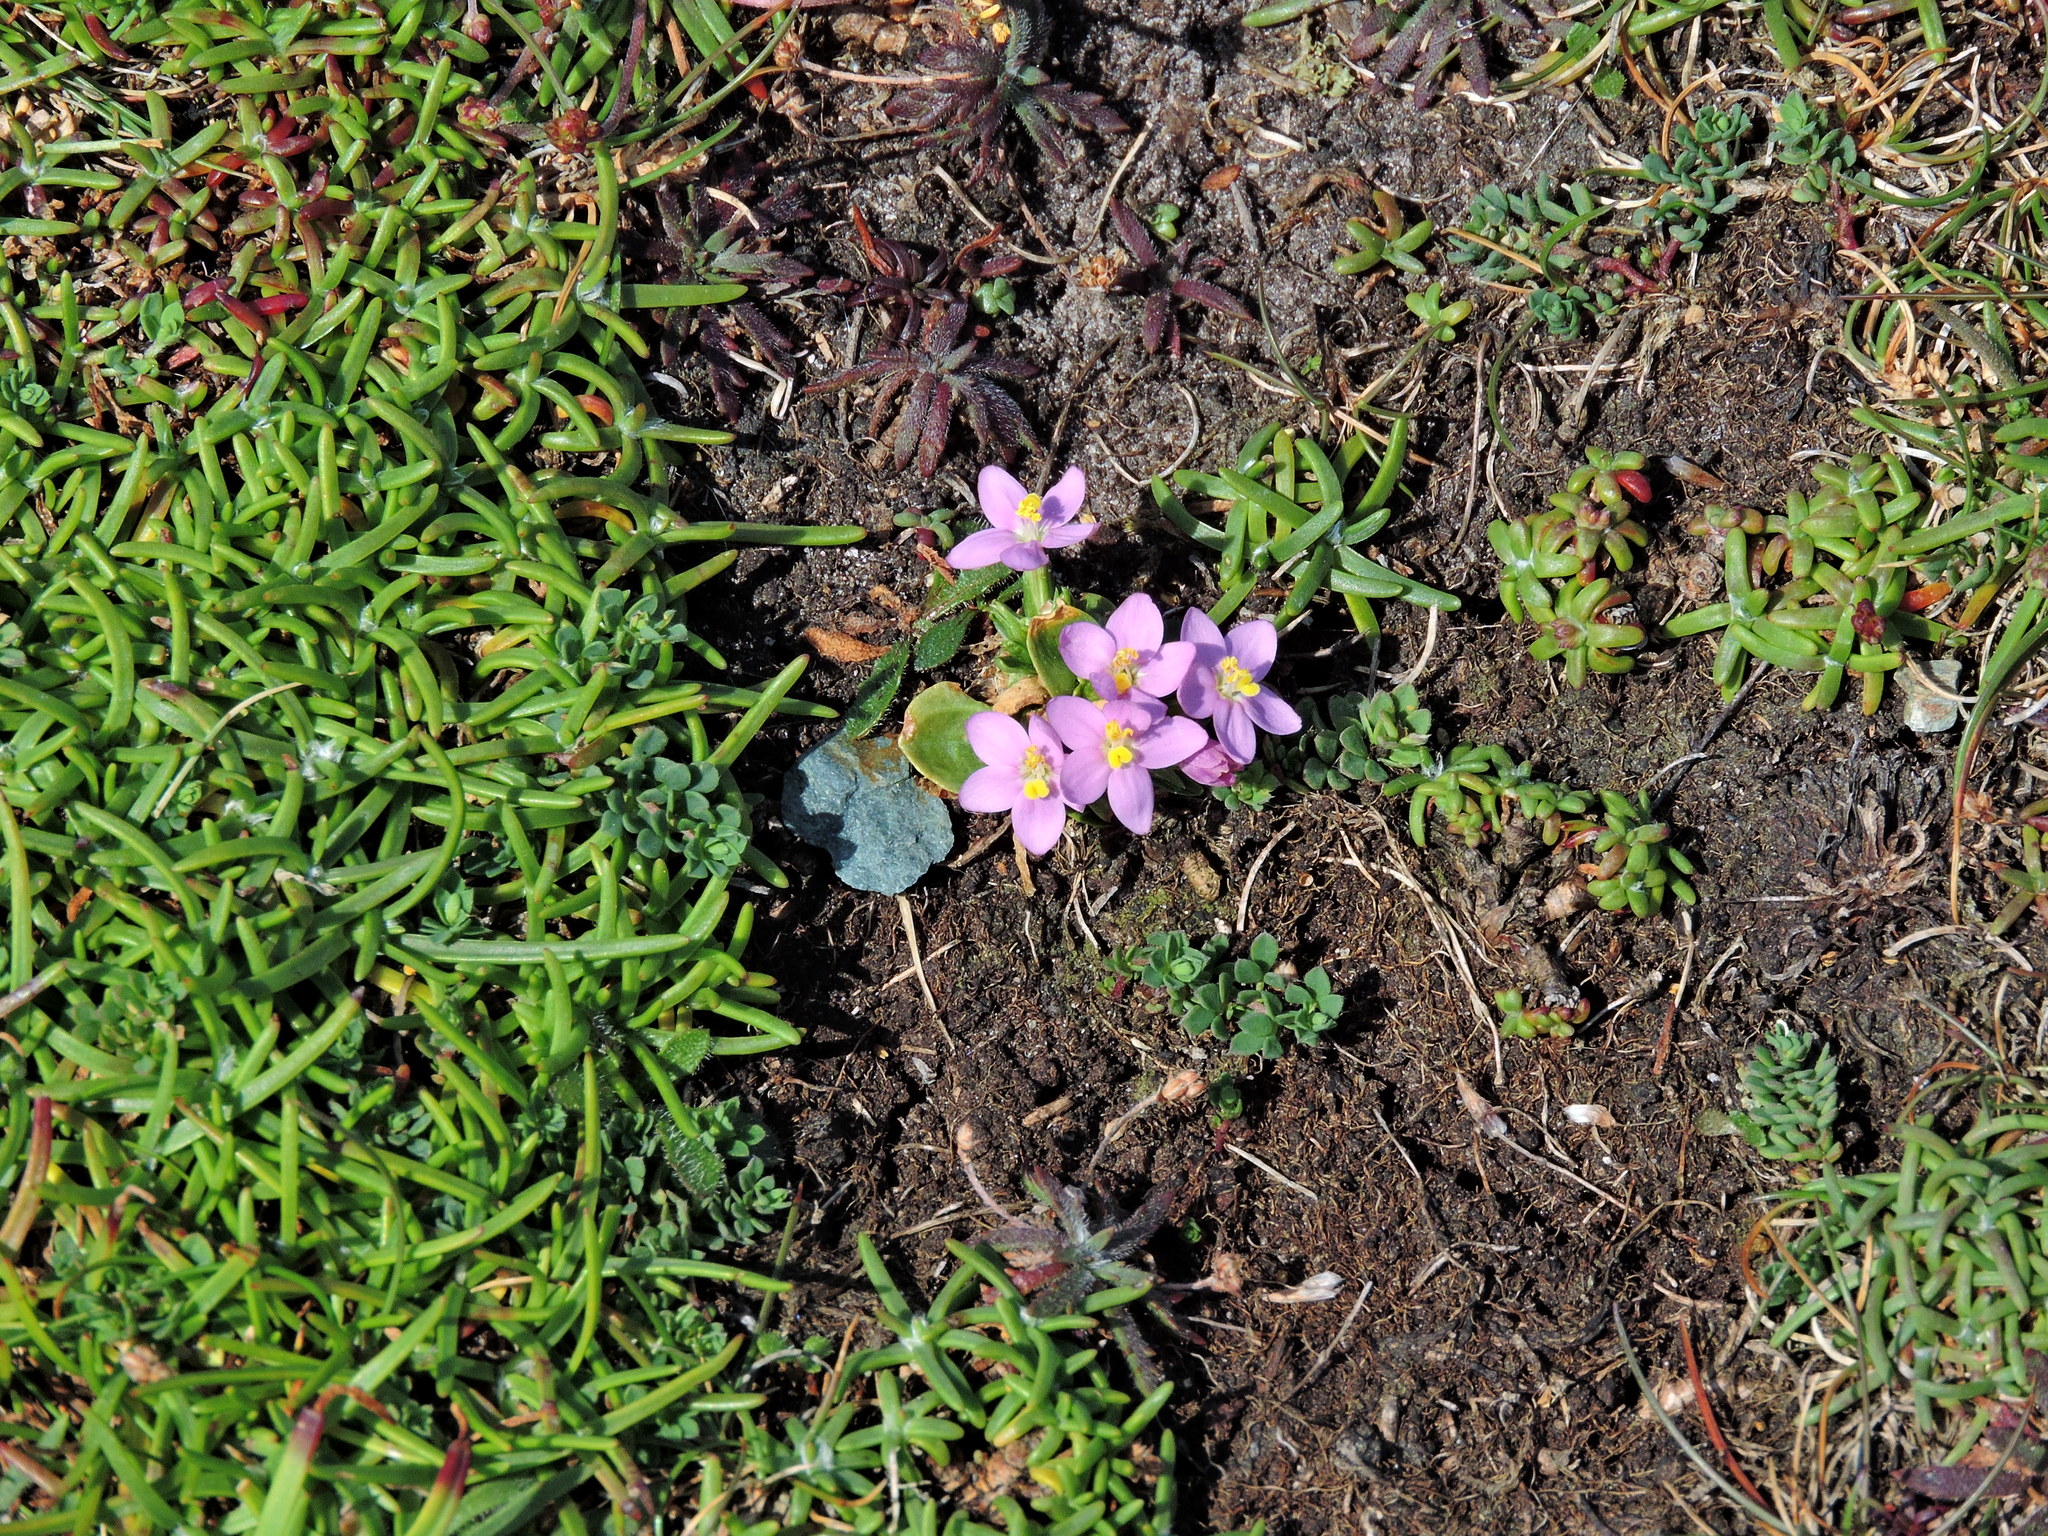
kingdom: Plantae
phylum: Tracheophyta
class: Magnoliopsida
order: Gentianales
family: Gentianaceae
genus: Centaurium
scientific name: Centaurium erythraea
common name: Common centaury
